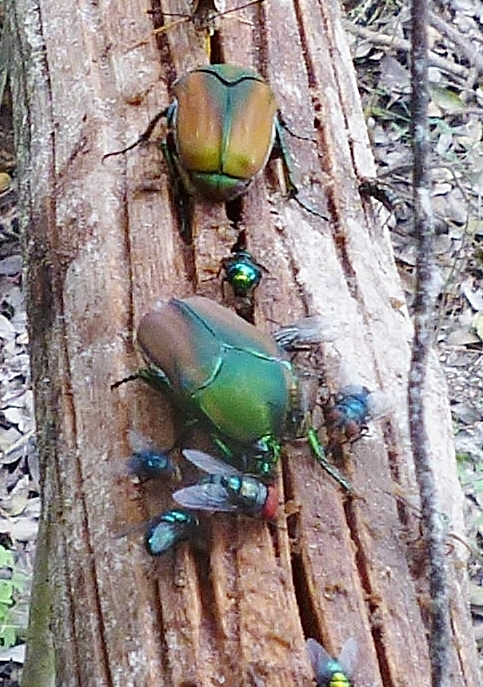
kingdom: Animalia
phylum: Arthropoda
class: Insecta
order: Coleoptera
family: Scarabaeidae
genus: Cotinis
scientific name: Cotinis mutabilis
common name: Figeater beetle
